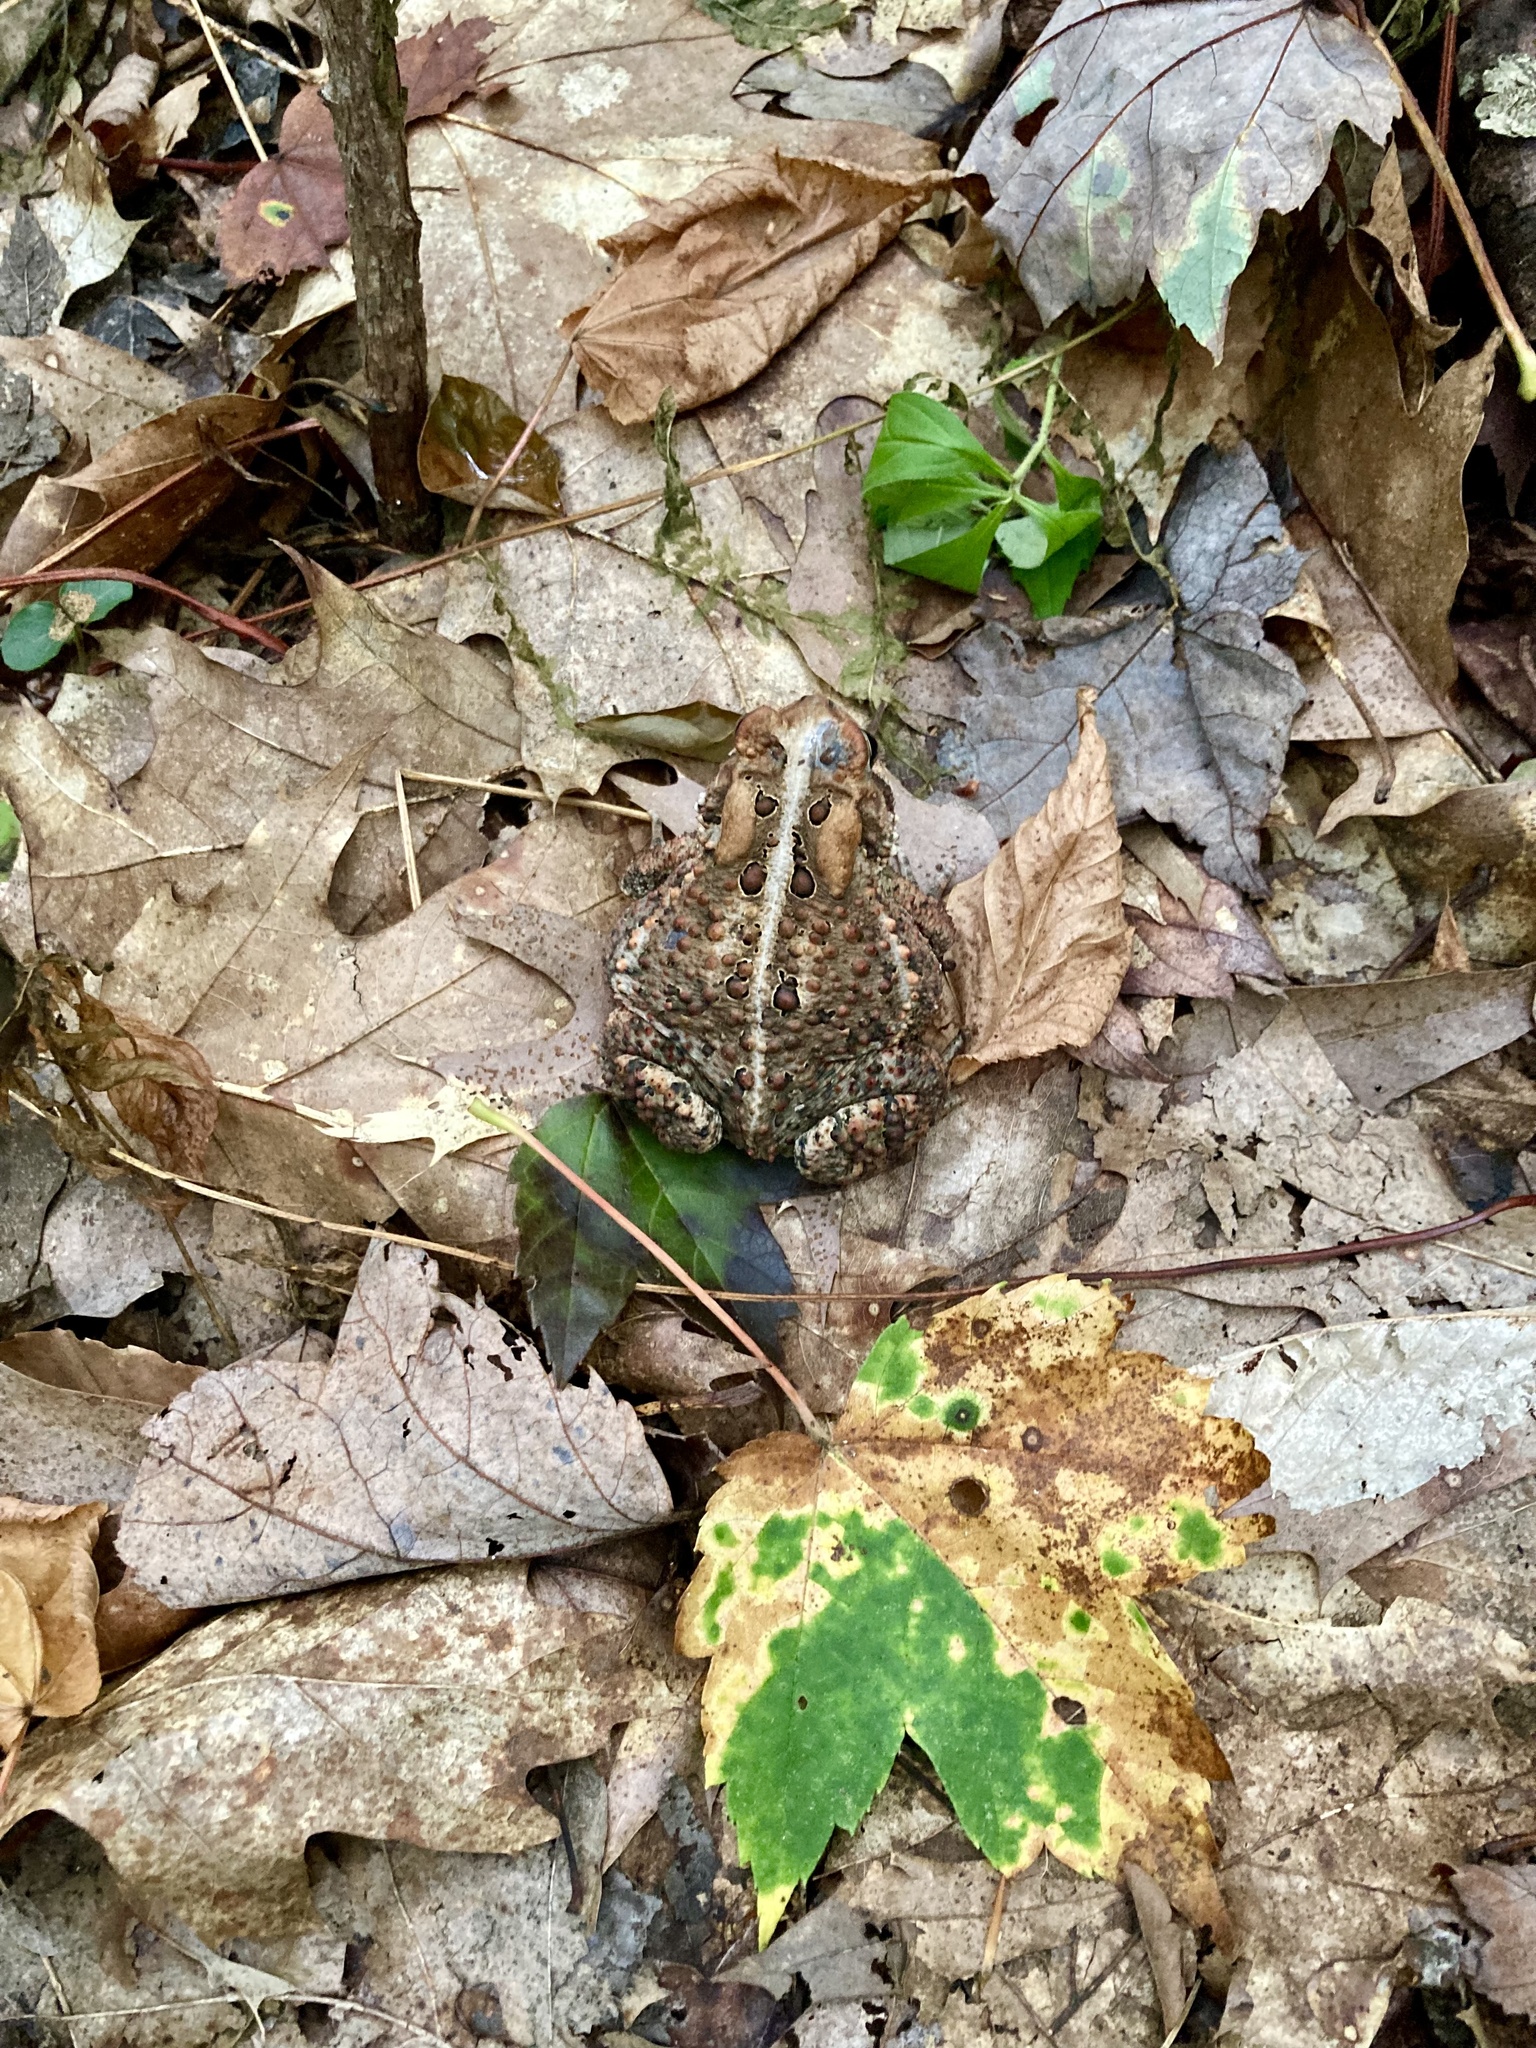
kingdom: Animalia
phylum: Chordata
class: Amphibia
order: Anura
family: Bufonidae
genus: Anaxyrus
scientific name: Anaxyrus americanus
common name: American toad
